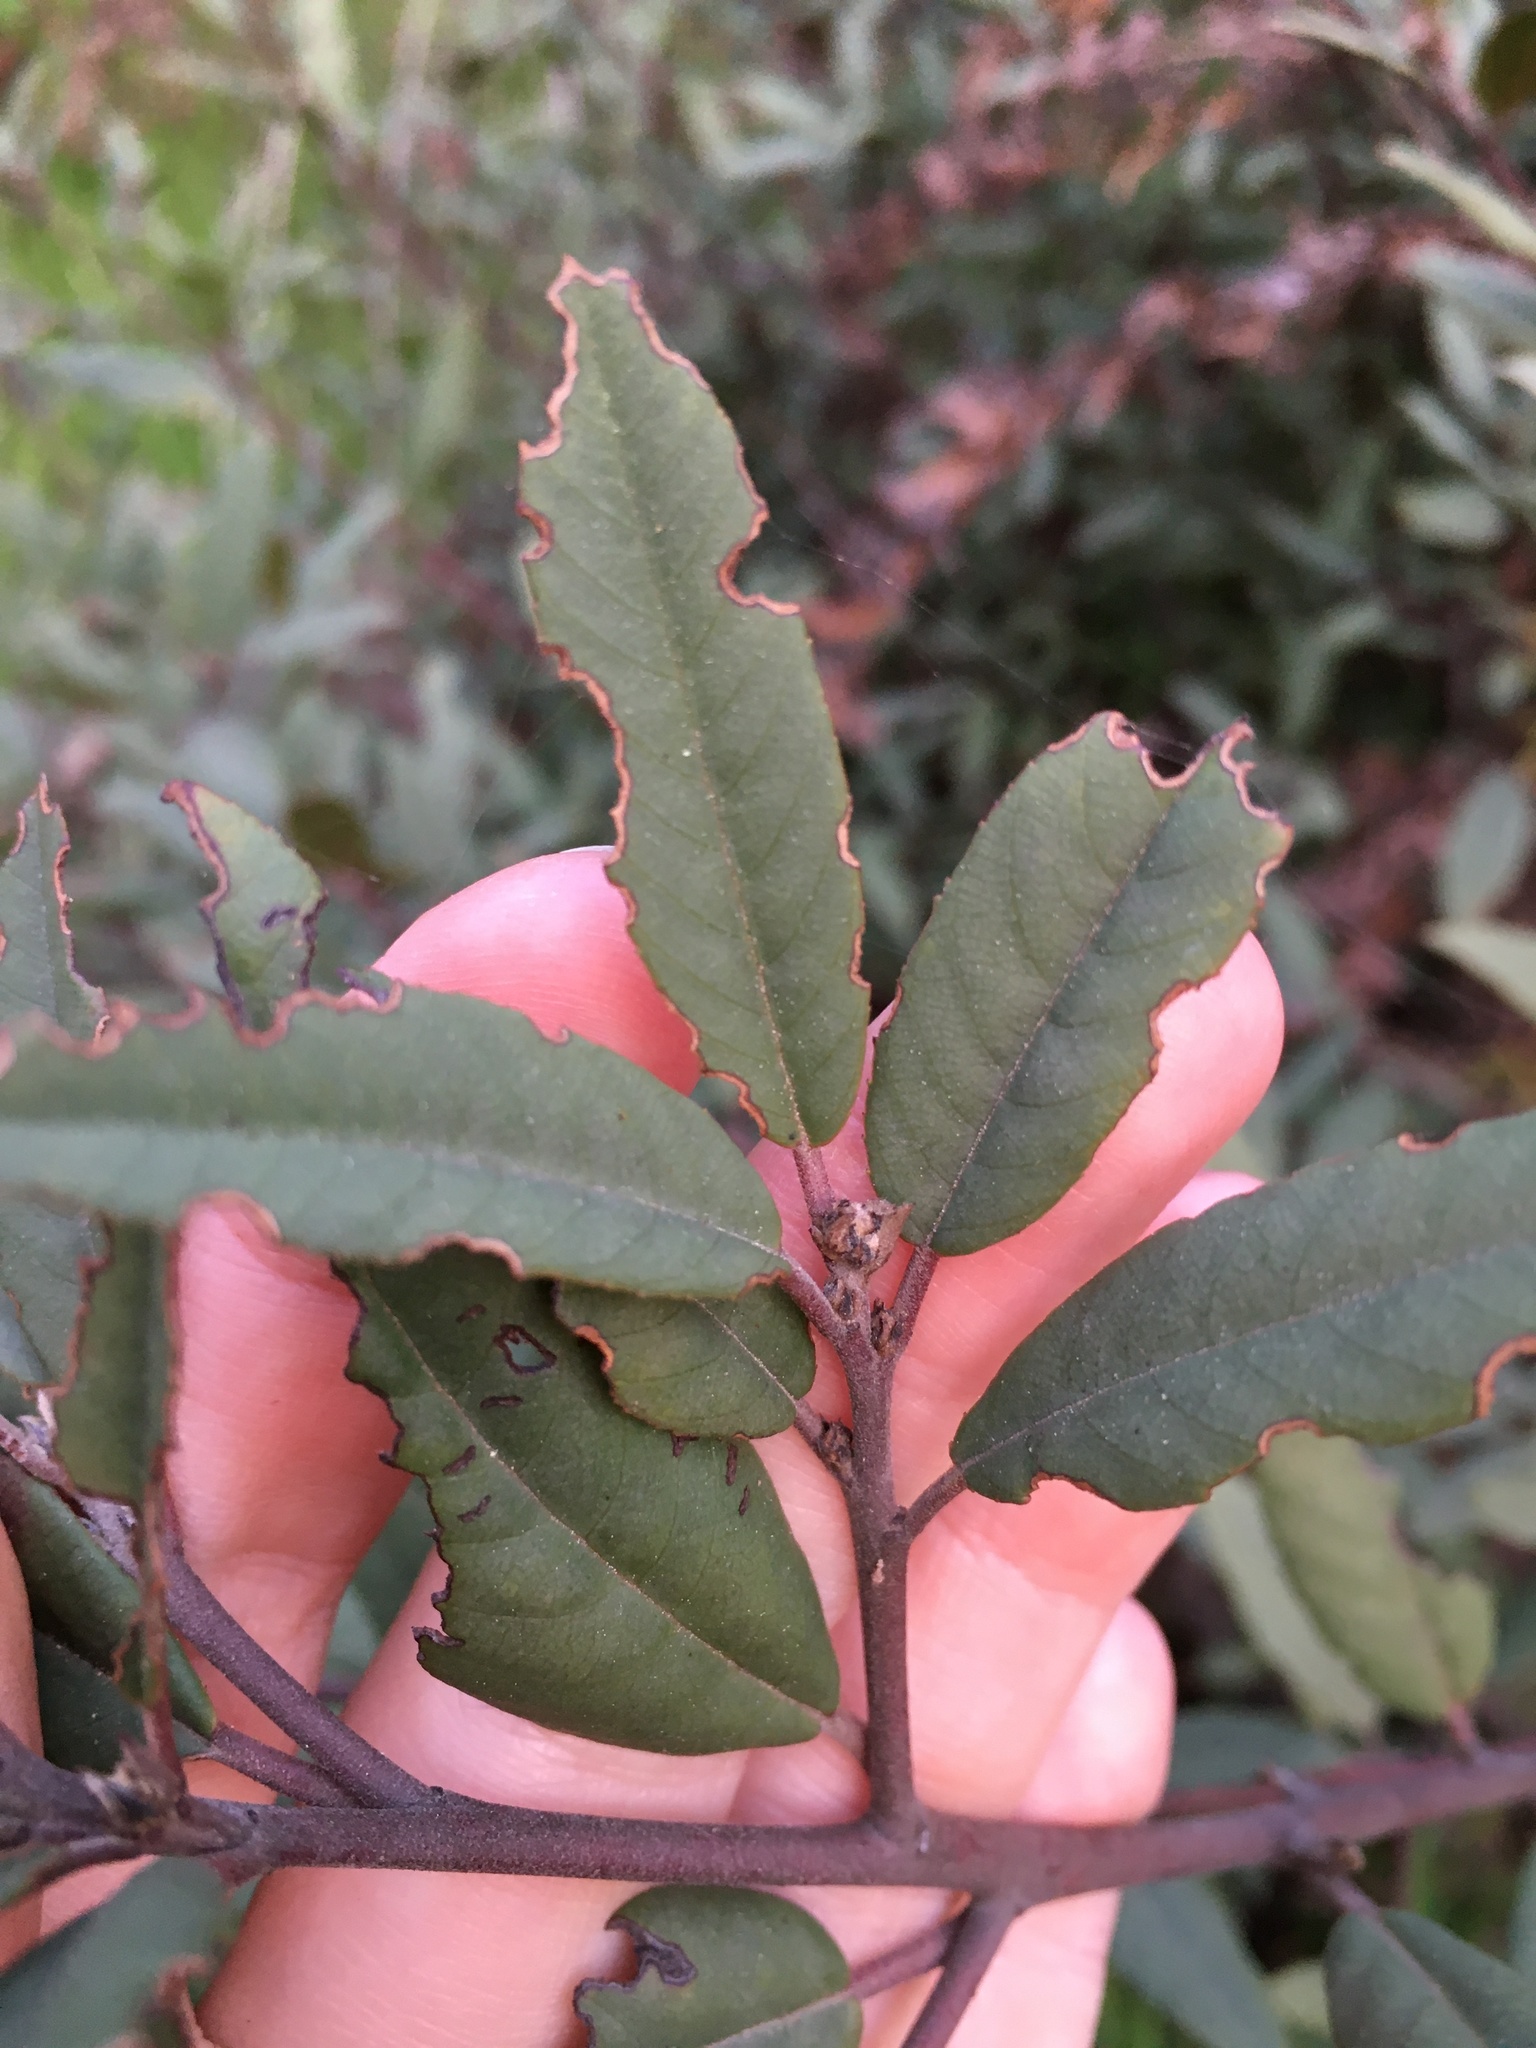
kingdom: Plantae
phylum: Tracheophyta
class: Magnoliopsida
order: Rosales
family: Rhamnaceae
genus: Frangula
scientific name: Frangula californica
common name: California buckthorn
